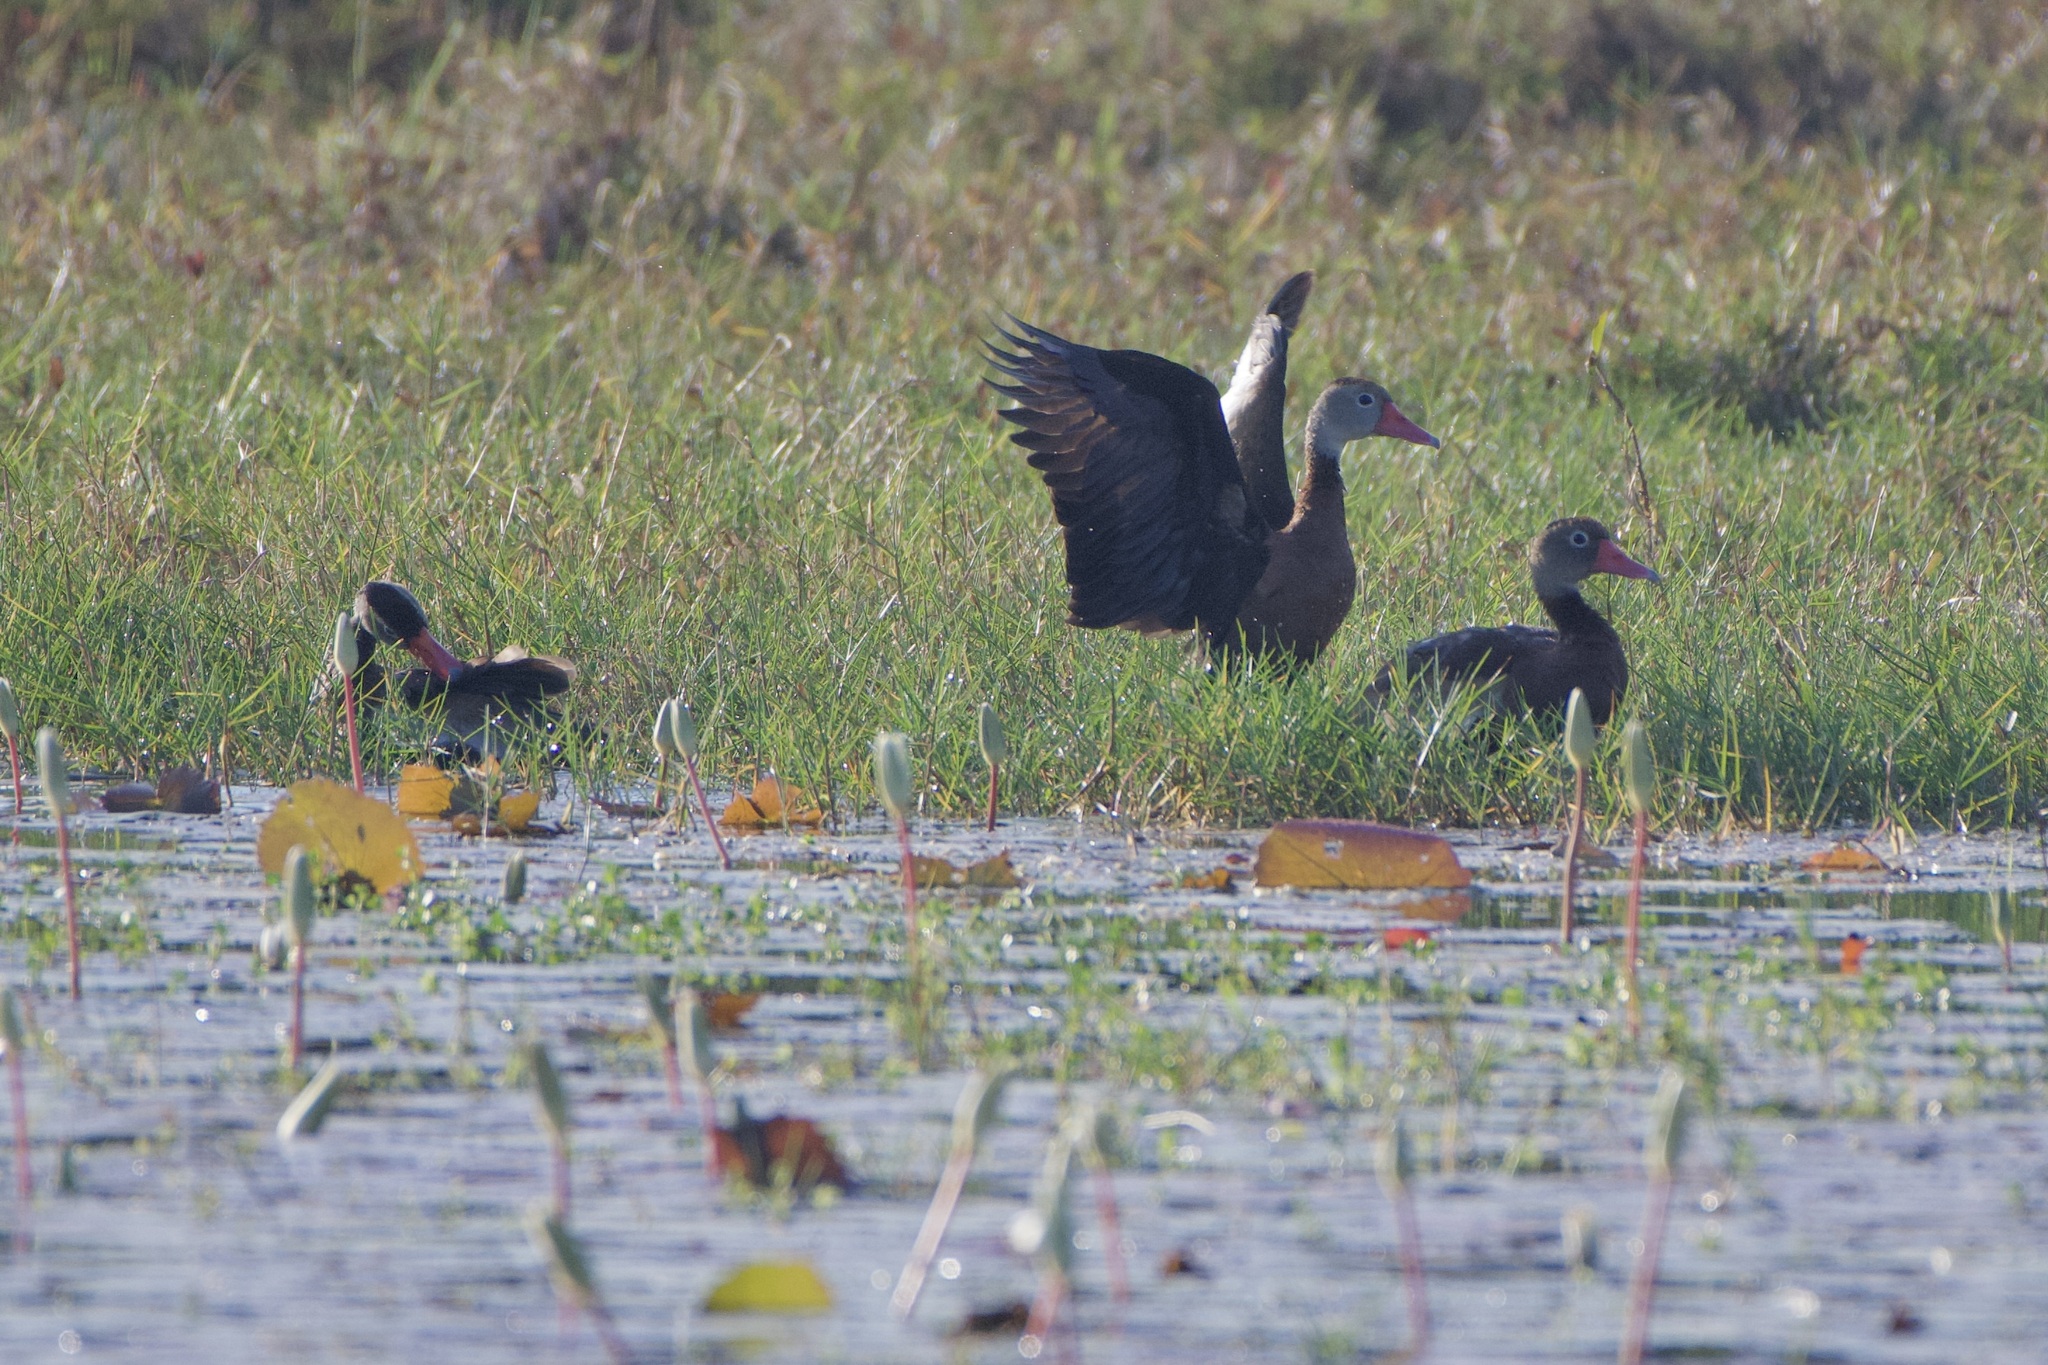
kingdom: Animalia
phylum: Chordata
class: Aves
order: Anseriformes
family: Anatidae
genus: Dendrocygna
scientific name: Dendrocygna autumnalis
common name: Black-bellied whistling duck
